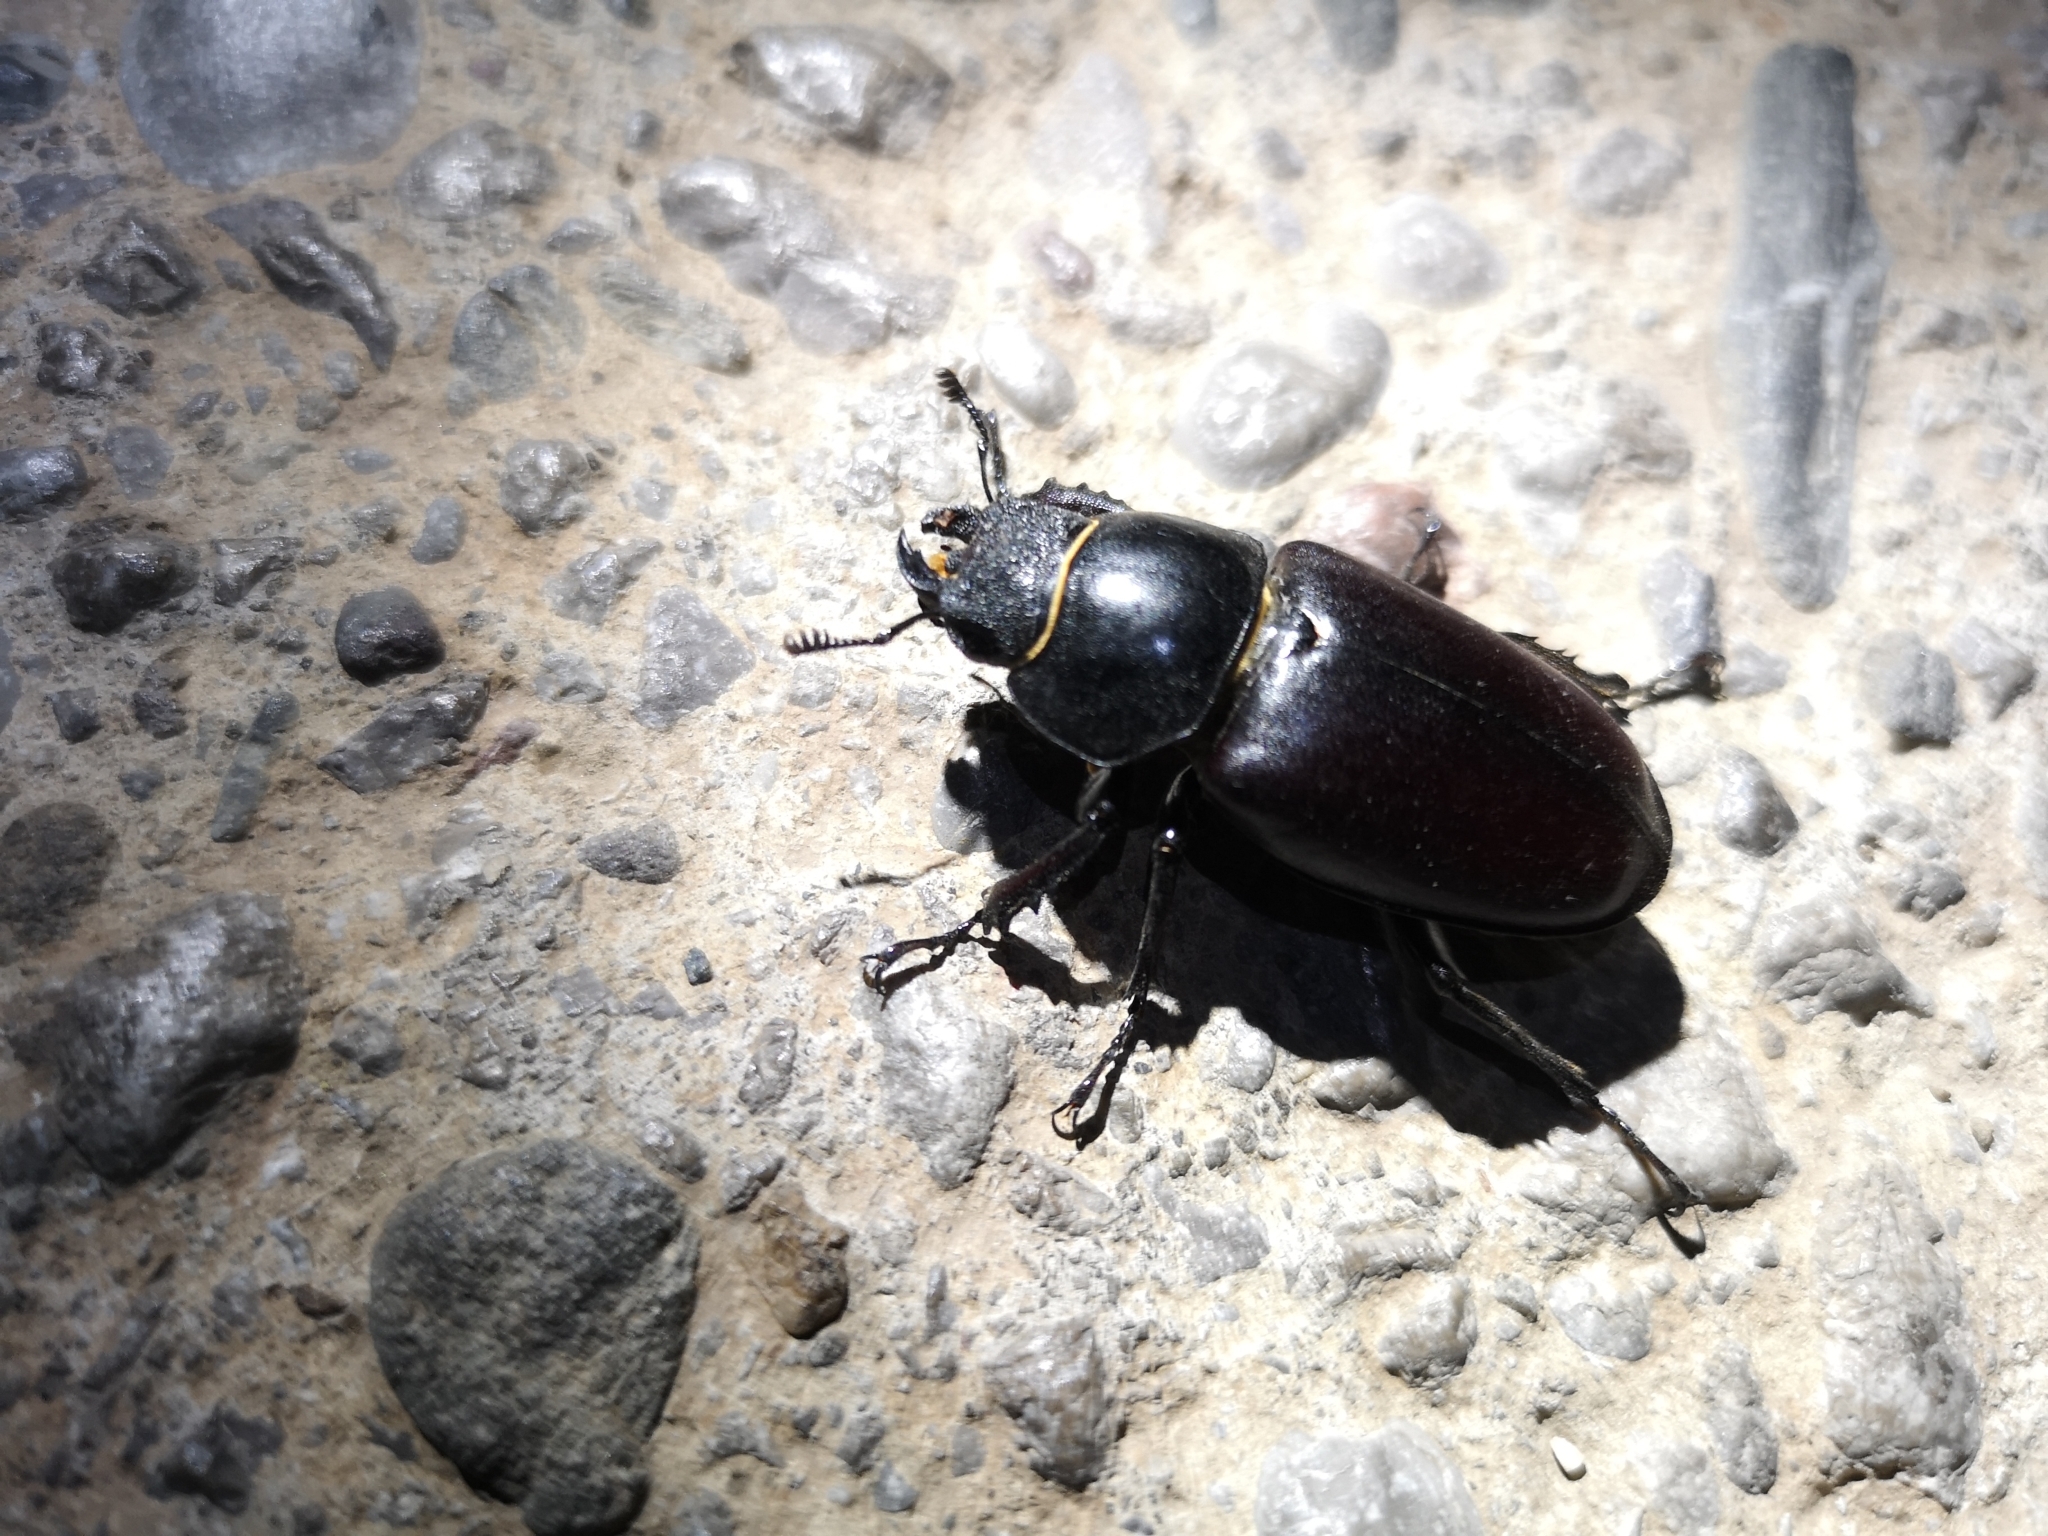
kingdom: Animalia
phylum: Arthropoda
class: Insecta
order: Coleoptera
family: Lucanidae
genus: Lucanus
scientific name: Lucanus cervus
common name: Stag beetle
